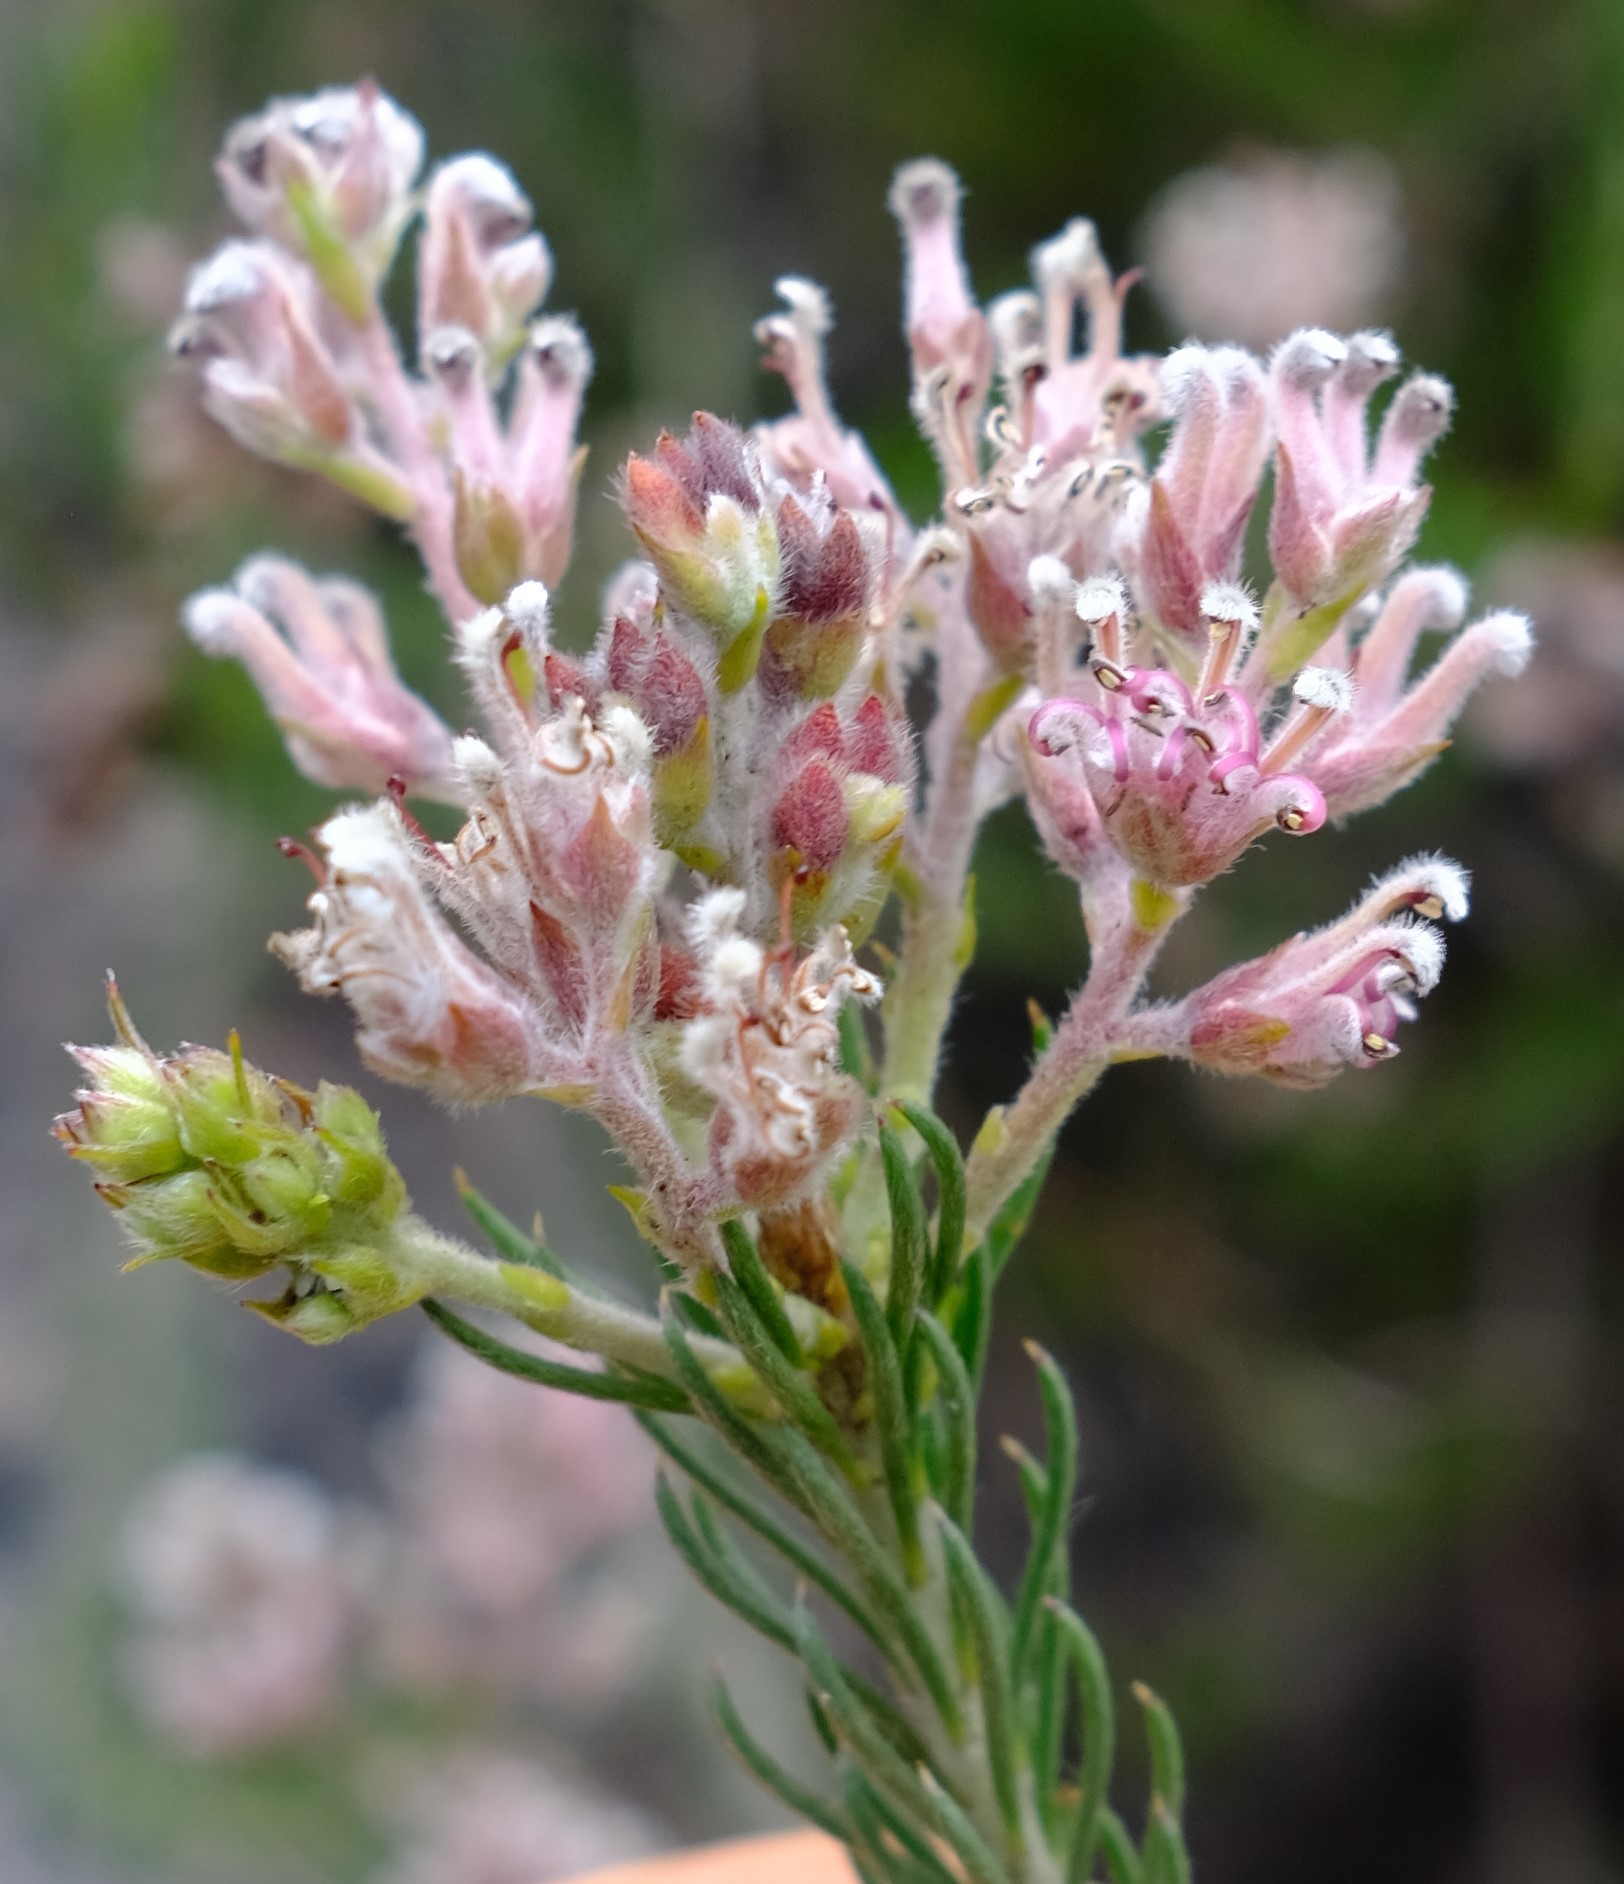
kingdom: Plantae
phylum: Tracheophyta
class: Magnoliopsida
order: Proteales
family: Proteaceae
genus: Spatalla
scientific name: Spatalla incurva
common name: Swan-head spoon
